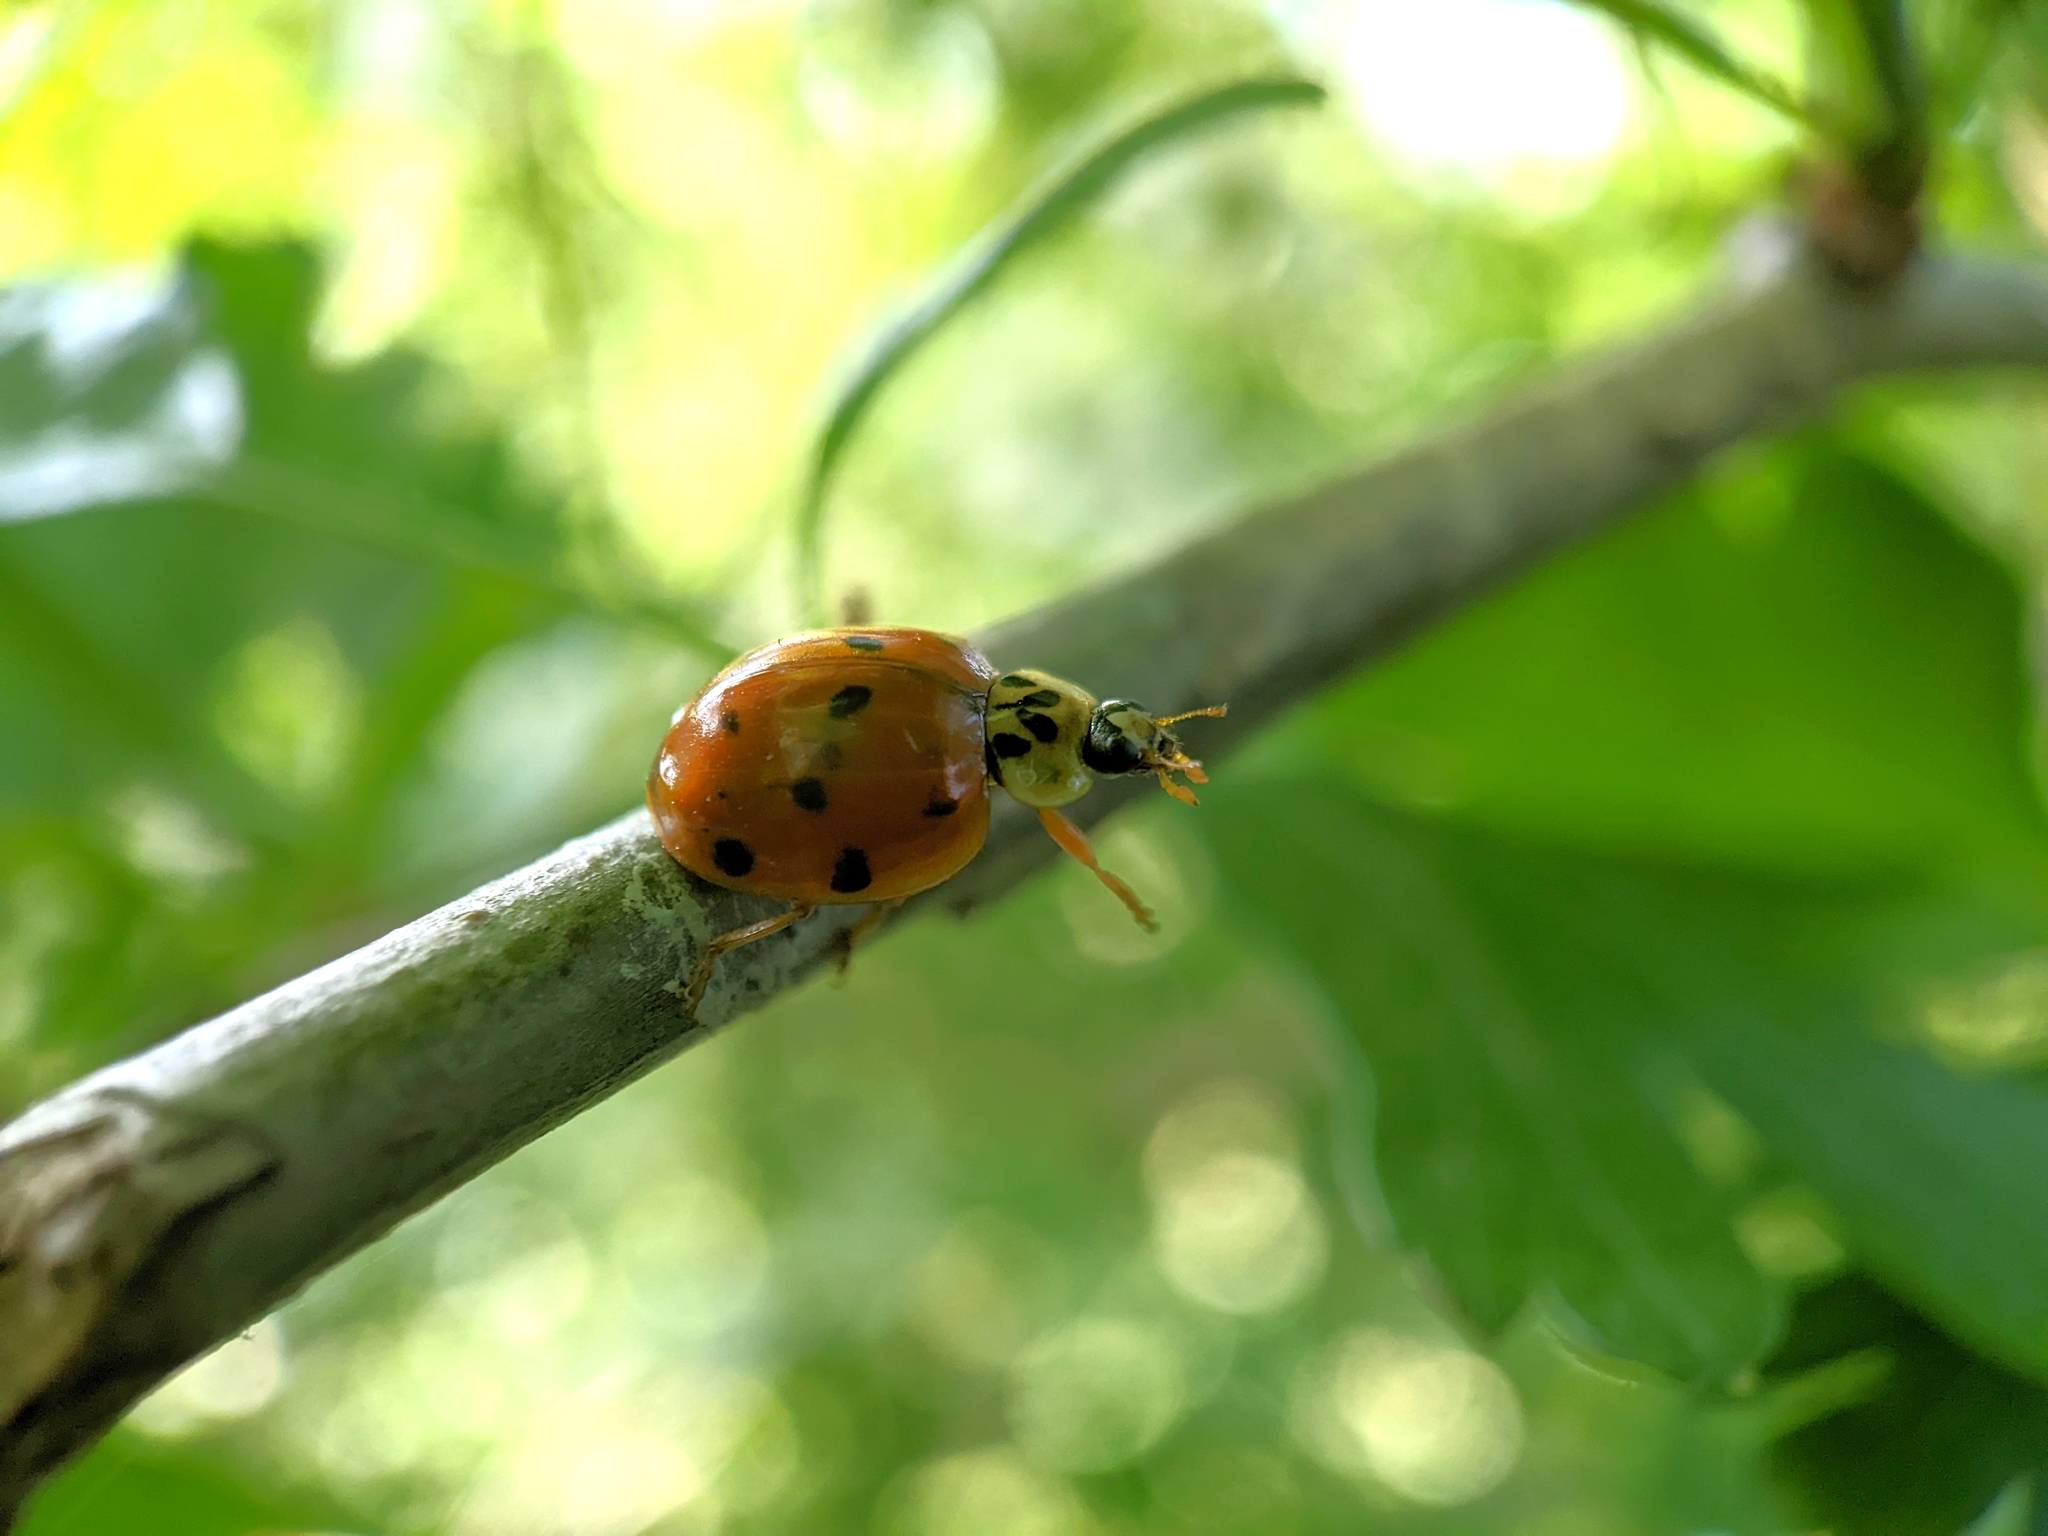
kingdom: Animalia
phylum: Arthropoda
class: Insecta
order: Coleoptera
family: Coccinellidae
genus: Harmonia
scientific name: Harmonia axyridis
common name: Harlequin ladybird
